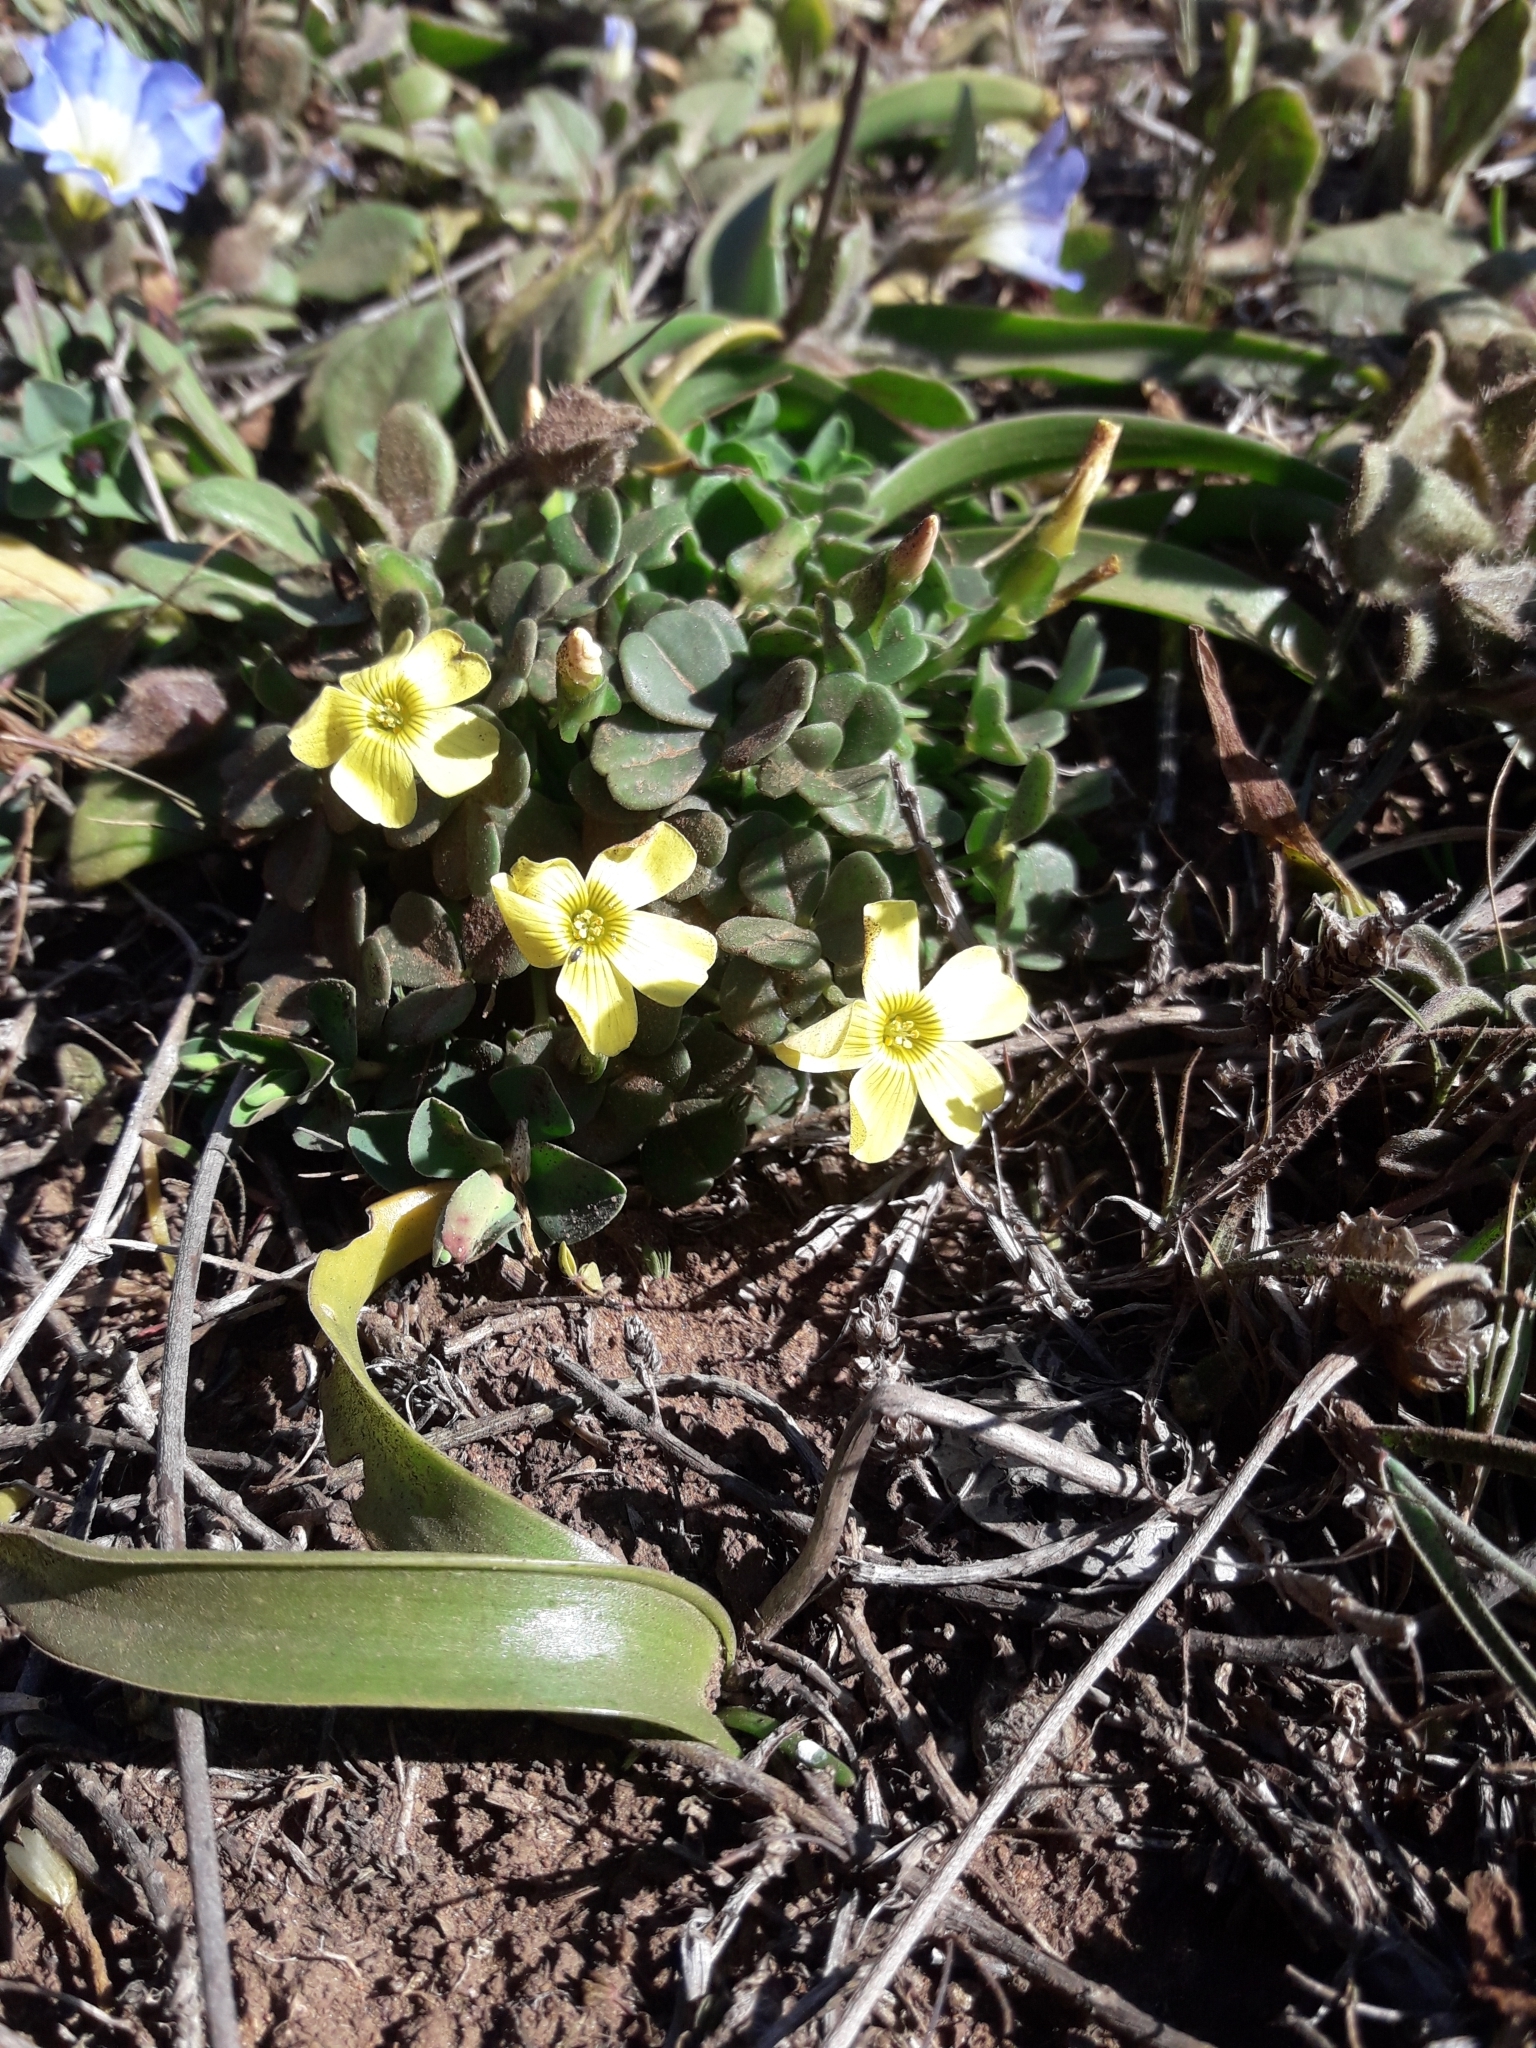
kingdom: Plantae
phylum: Tracheophyta
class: Magnoliopsida
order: Oxalidales
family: Oxalidaceae
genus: Oxalis
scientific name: Oxalis megalorrhiza
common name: Fleshy yellow-sorrel
